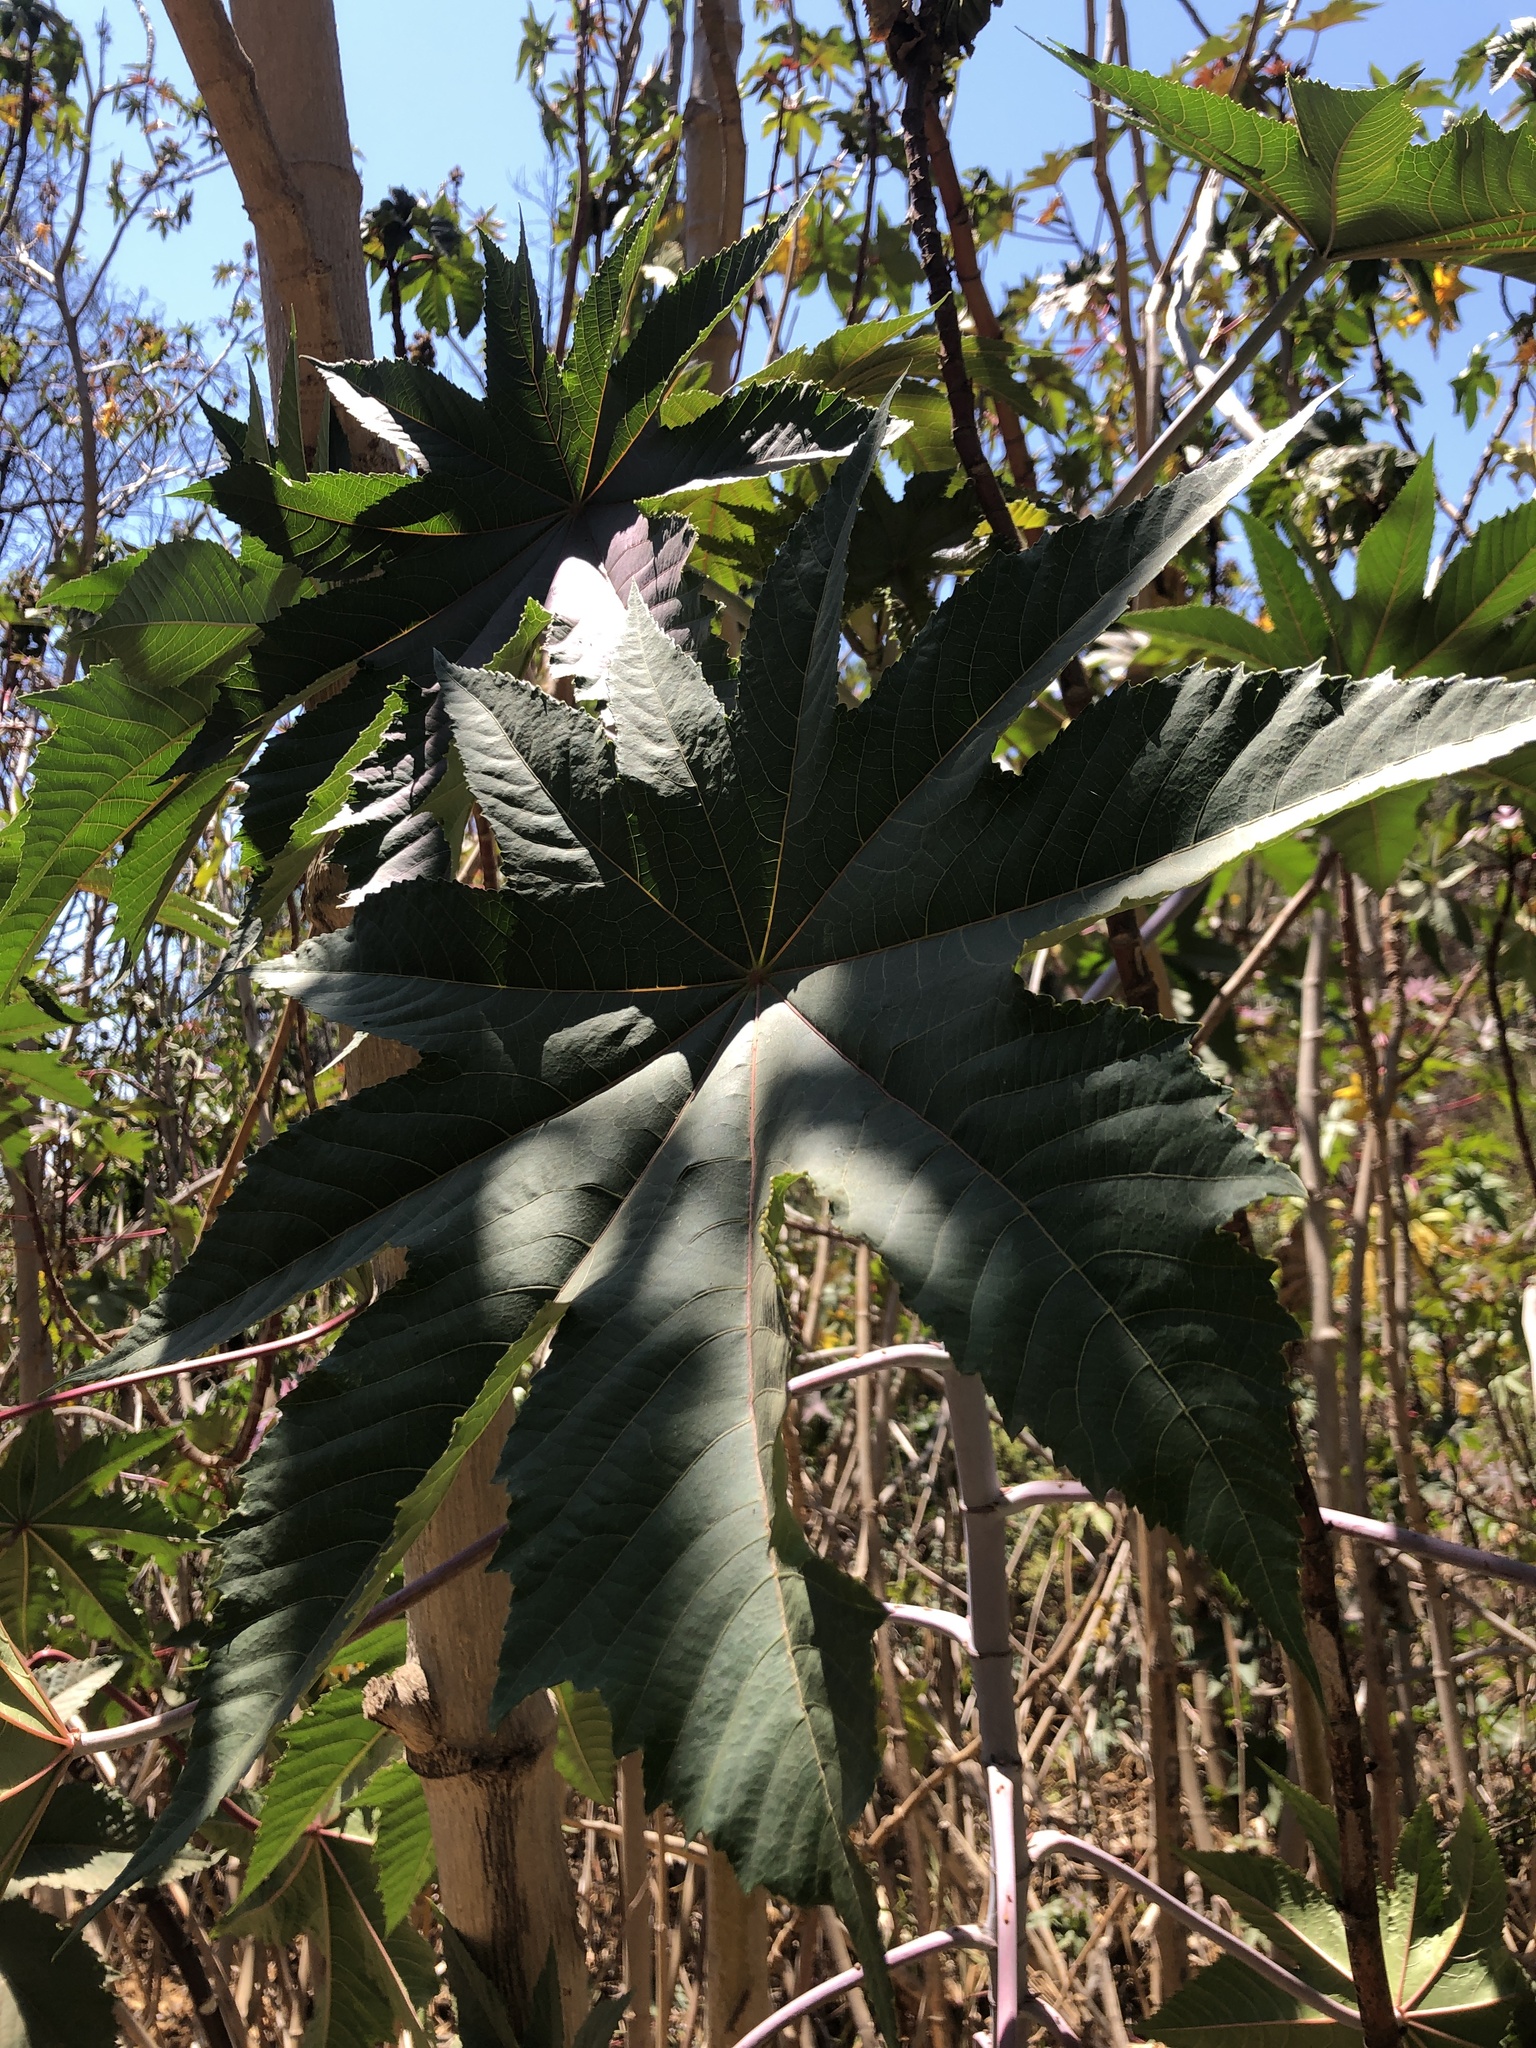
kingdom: Plantae
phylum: Tracheophyta
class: Magnoliopsida
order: Malpighiales
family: Euphorbiaceae
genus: Ricinus
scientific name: Ricinus communis
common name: Castor-oil-plant
